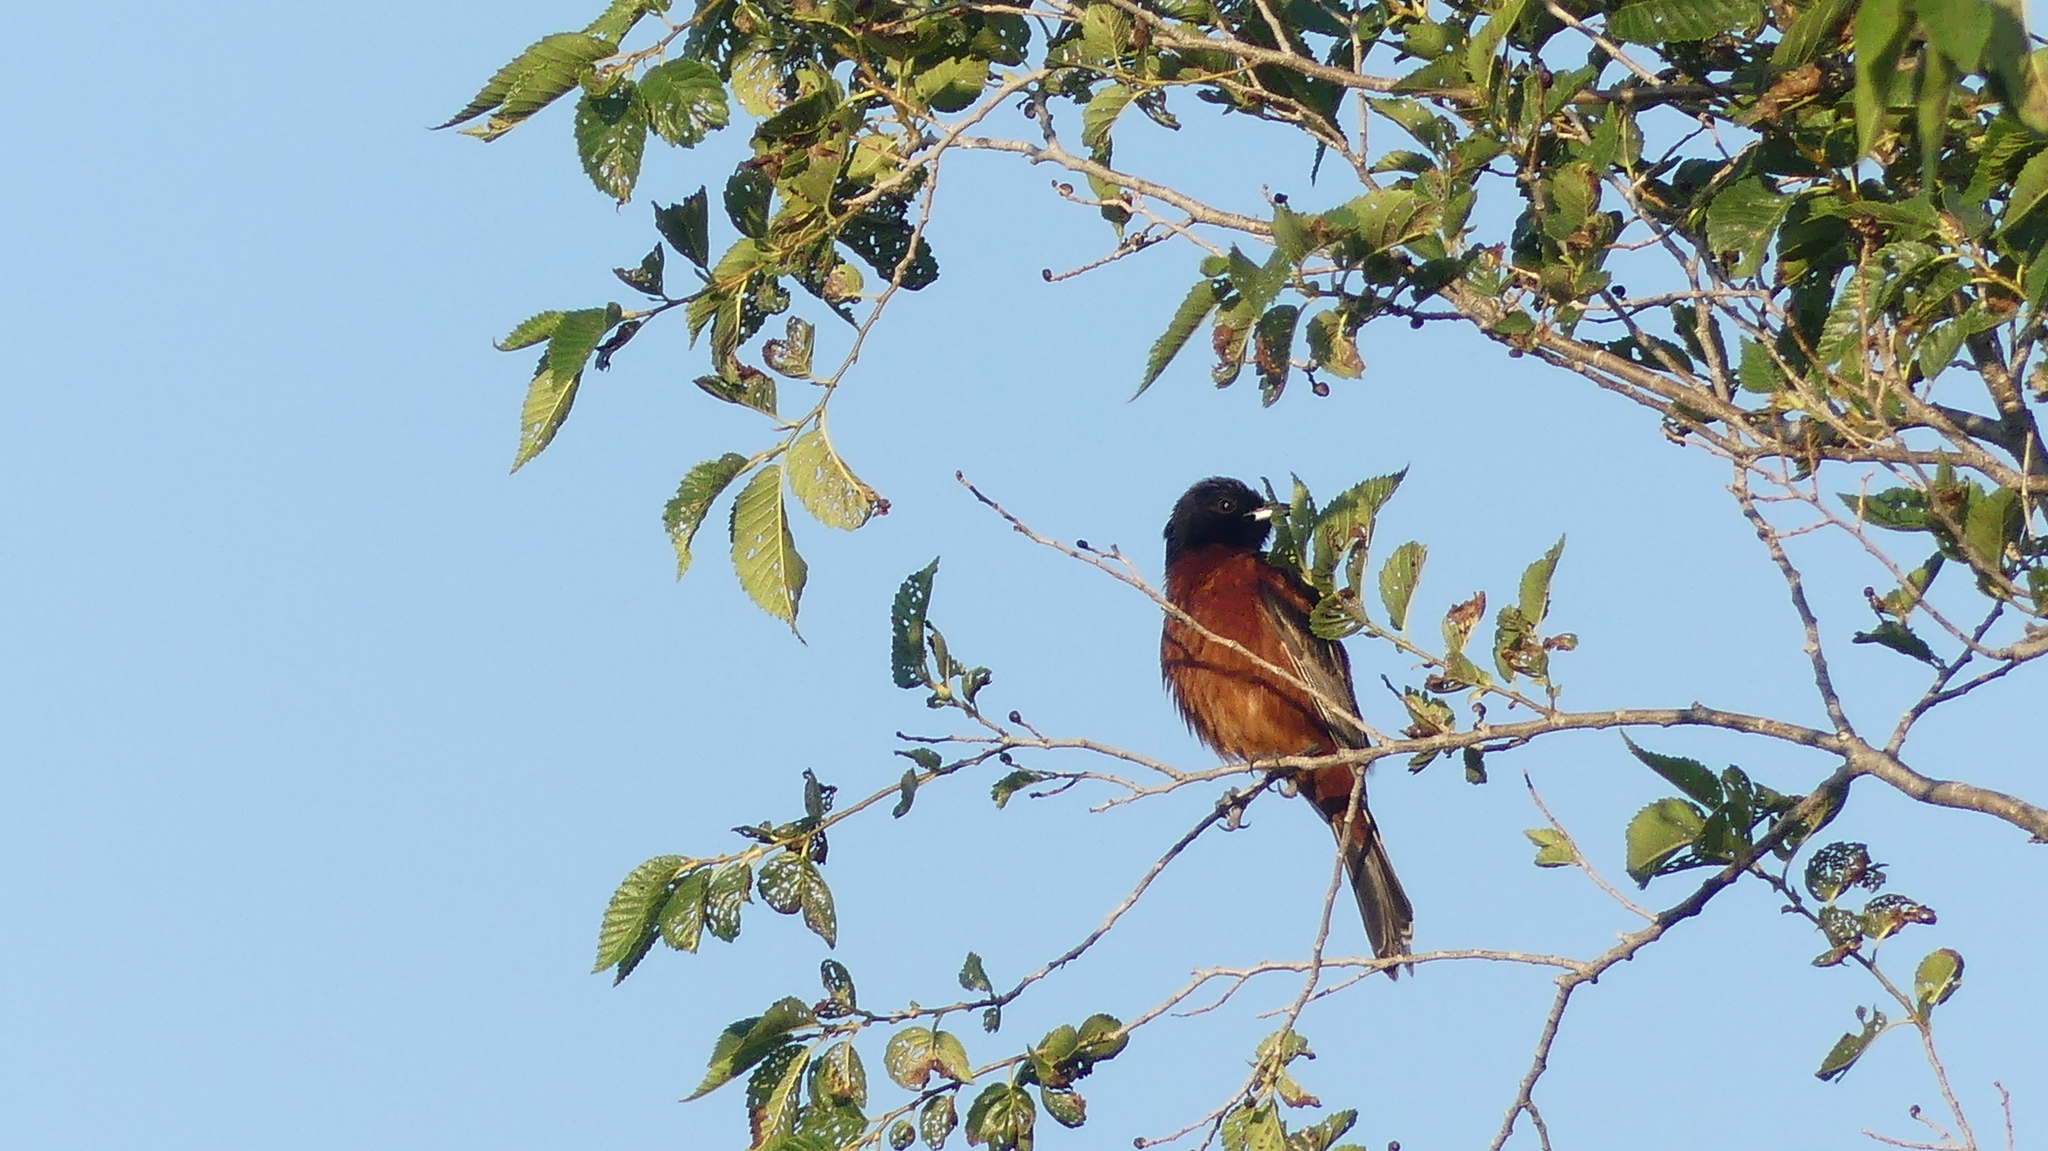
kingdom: Animalia
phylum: Chordata
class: Aves
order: Passeriformes
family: Icteridae
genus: Icterus
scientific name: Icterus spurius
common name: Orchard oriole
